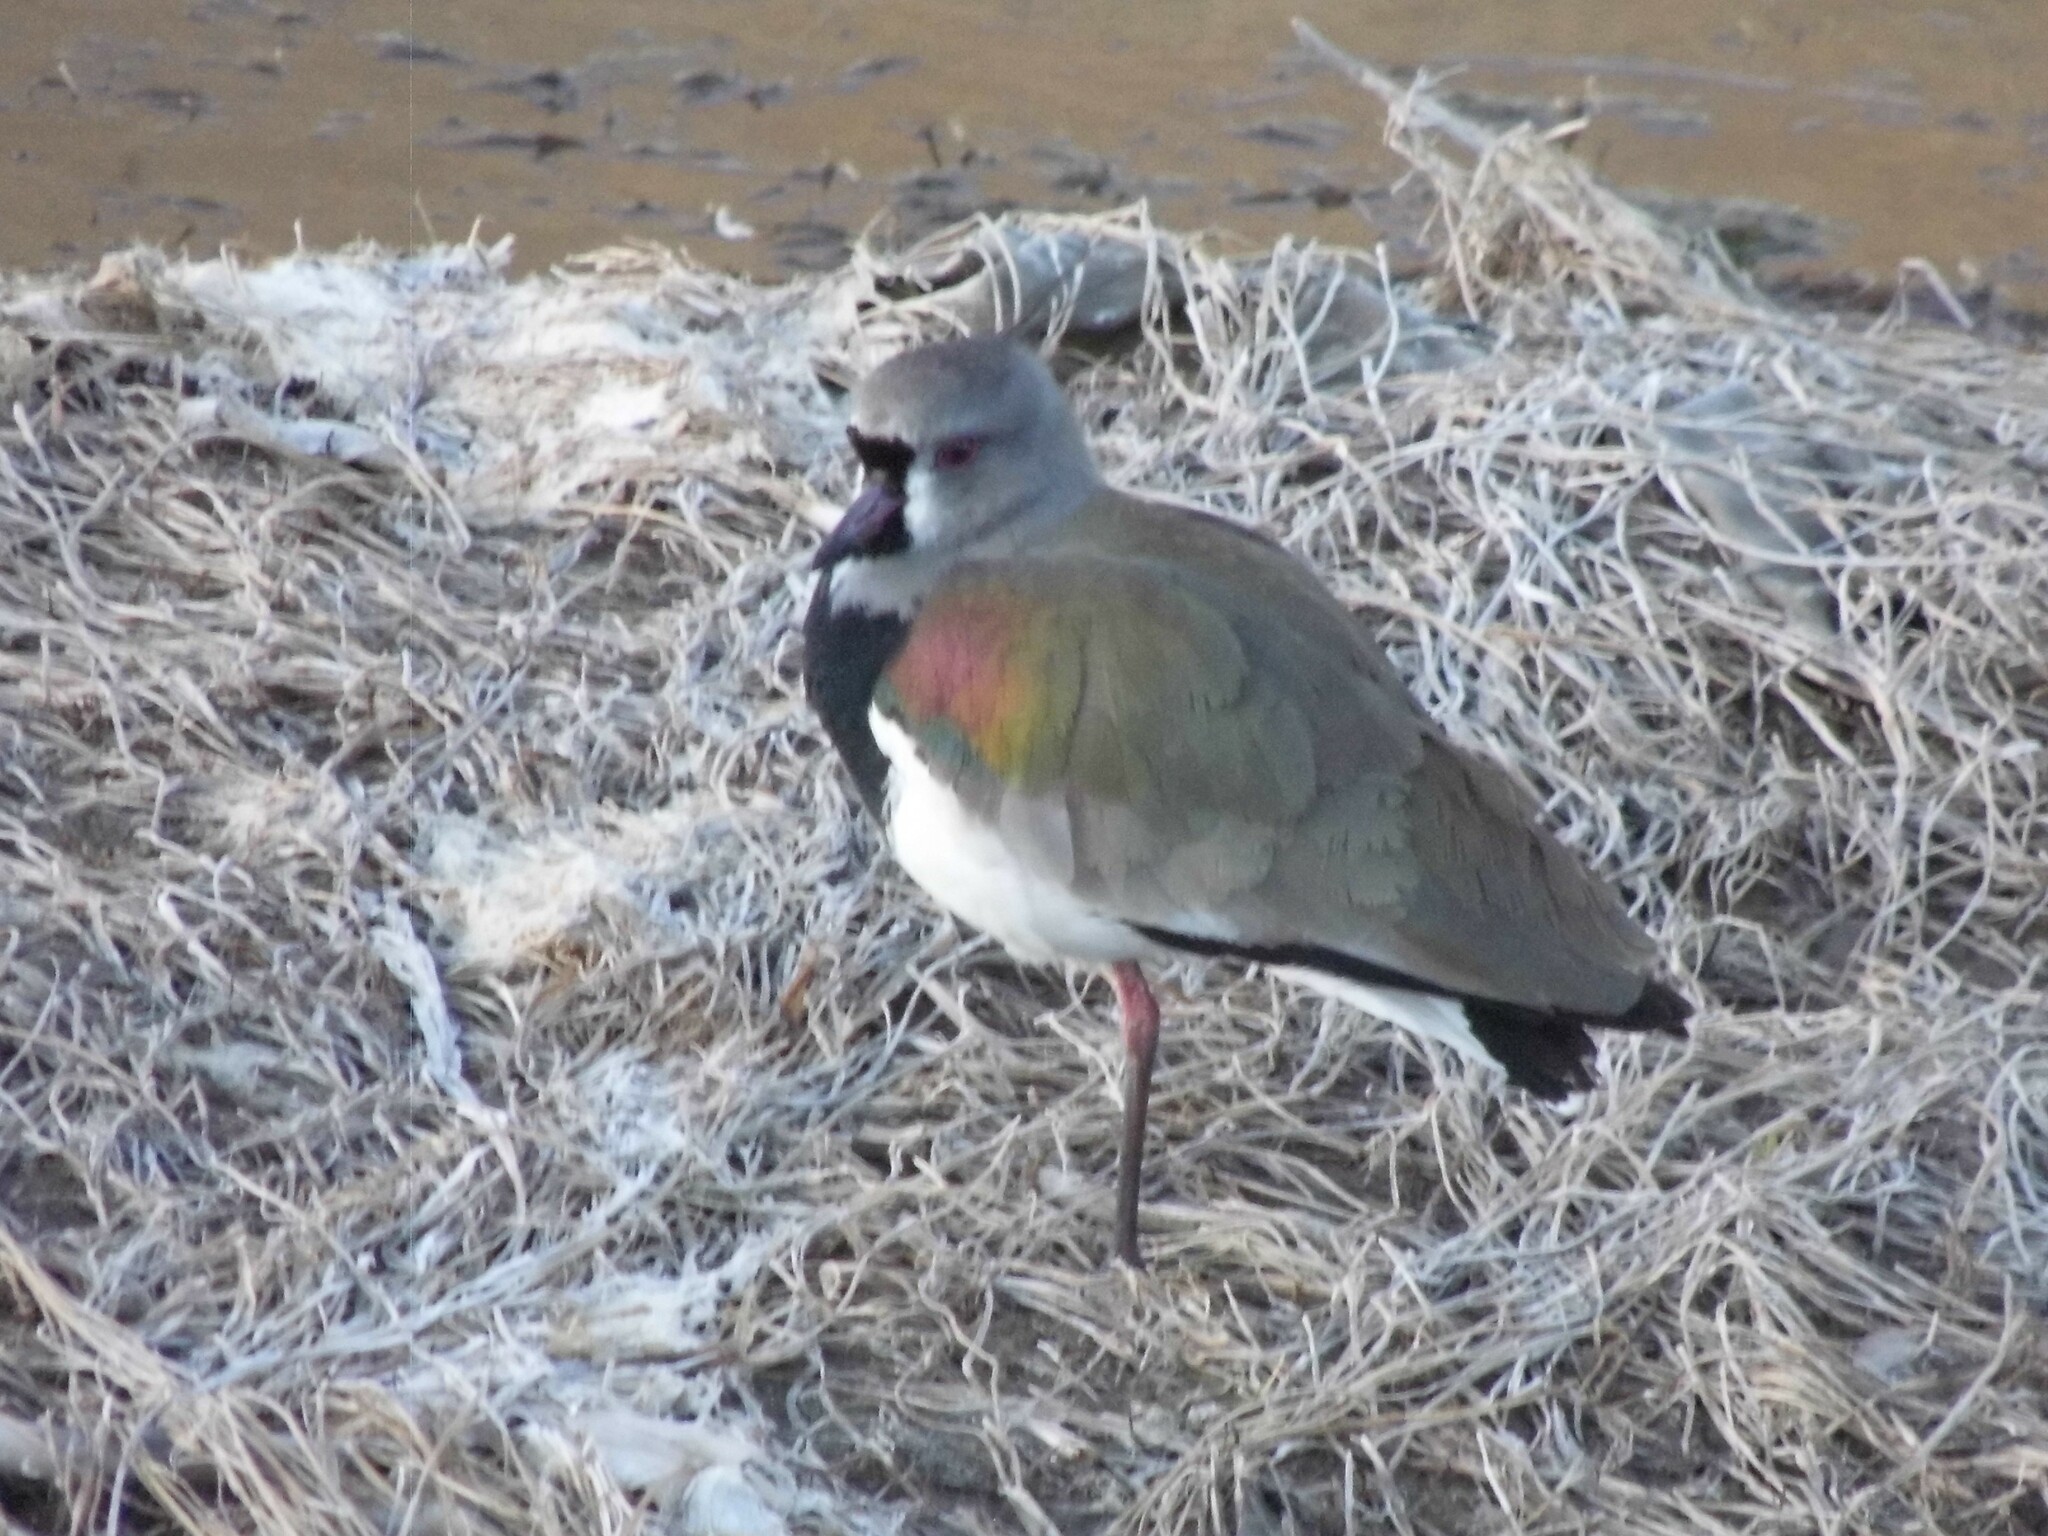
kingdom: Animalia
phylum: Chordata
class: Aves
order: Charadriiformes
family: Charadriidae
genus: Vanellus
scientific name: Vanellus chilensis
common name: Southern lapwing
